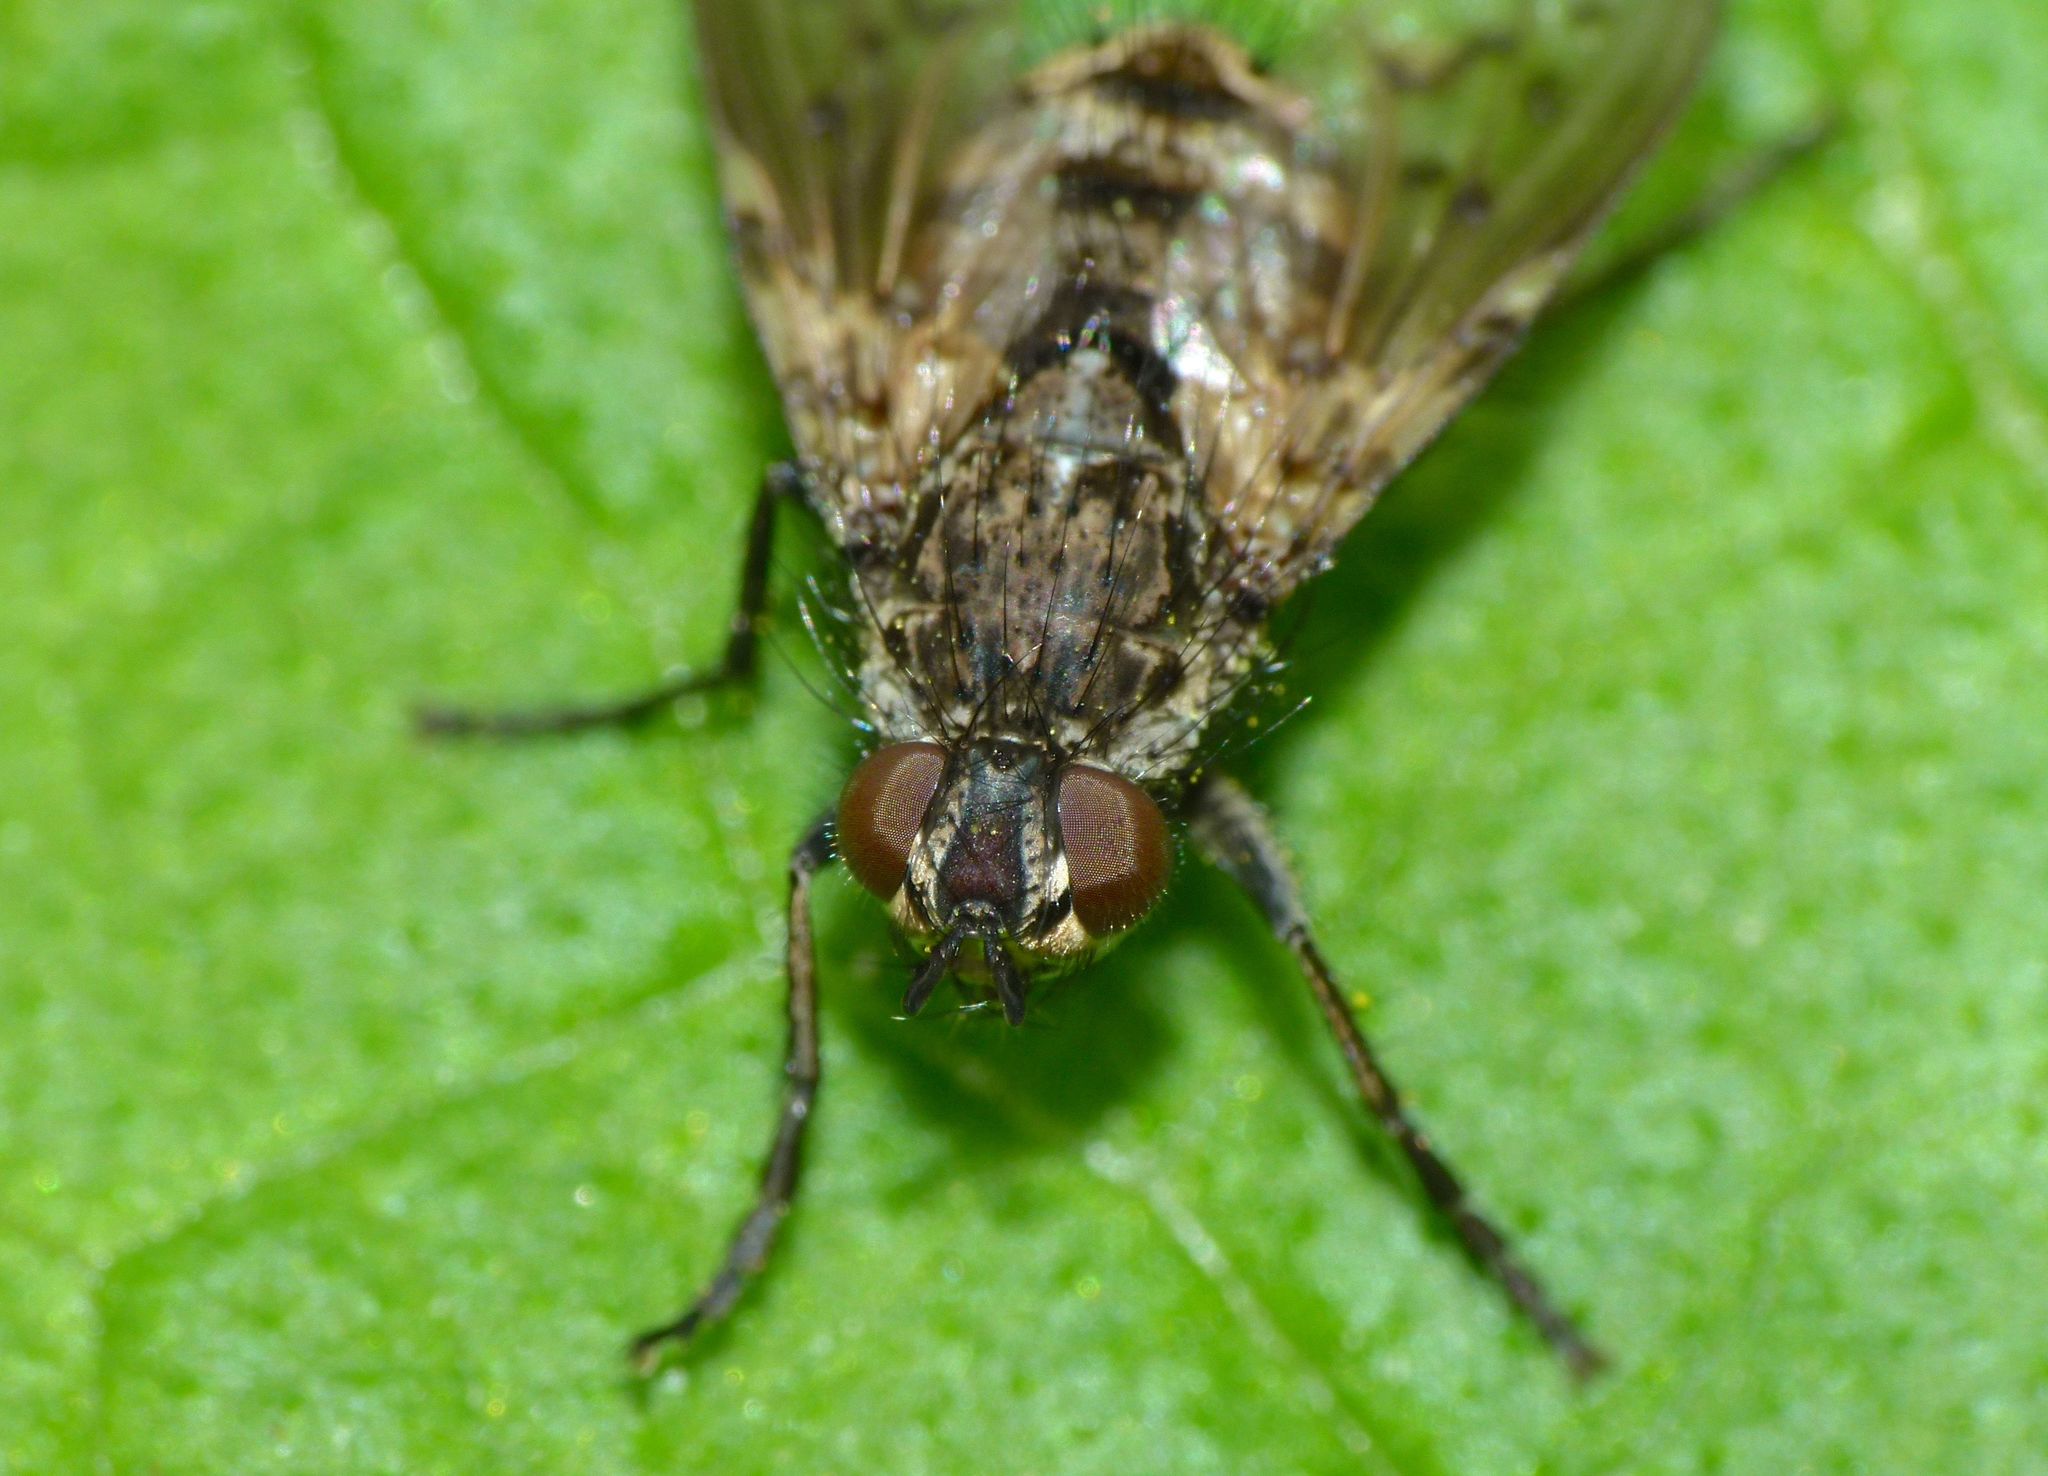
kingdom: Animalia
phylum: Arthropoda
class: Insecta
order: Diptera
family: Tachinidae
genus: Mallochomacquartia
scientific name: Mallochomacquartia vexata
